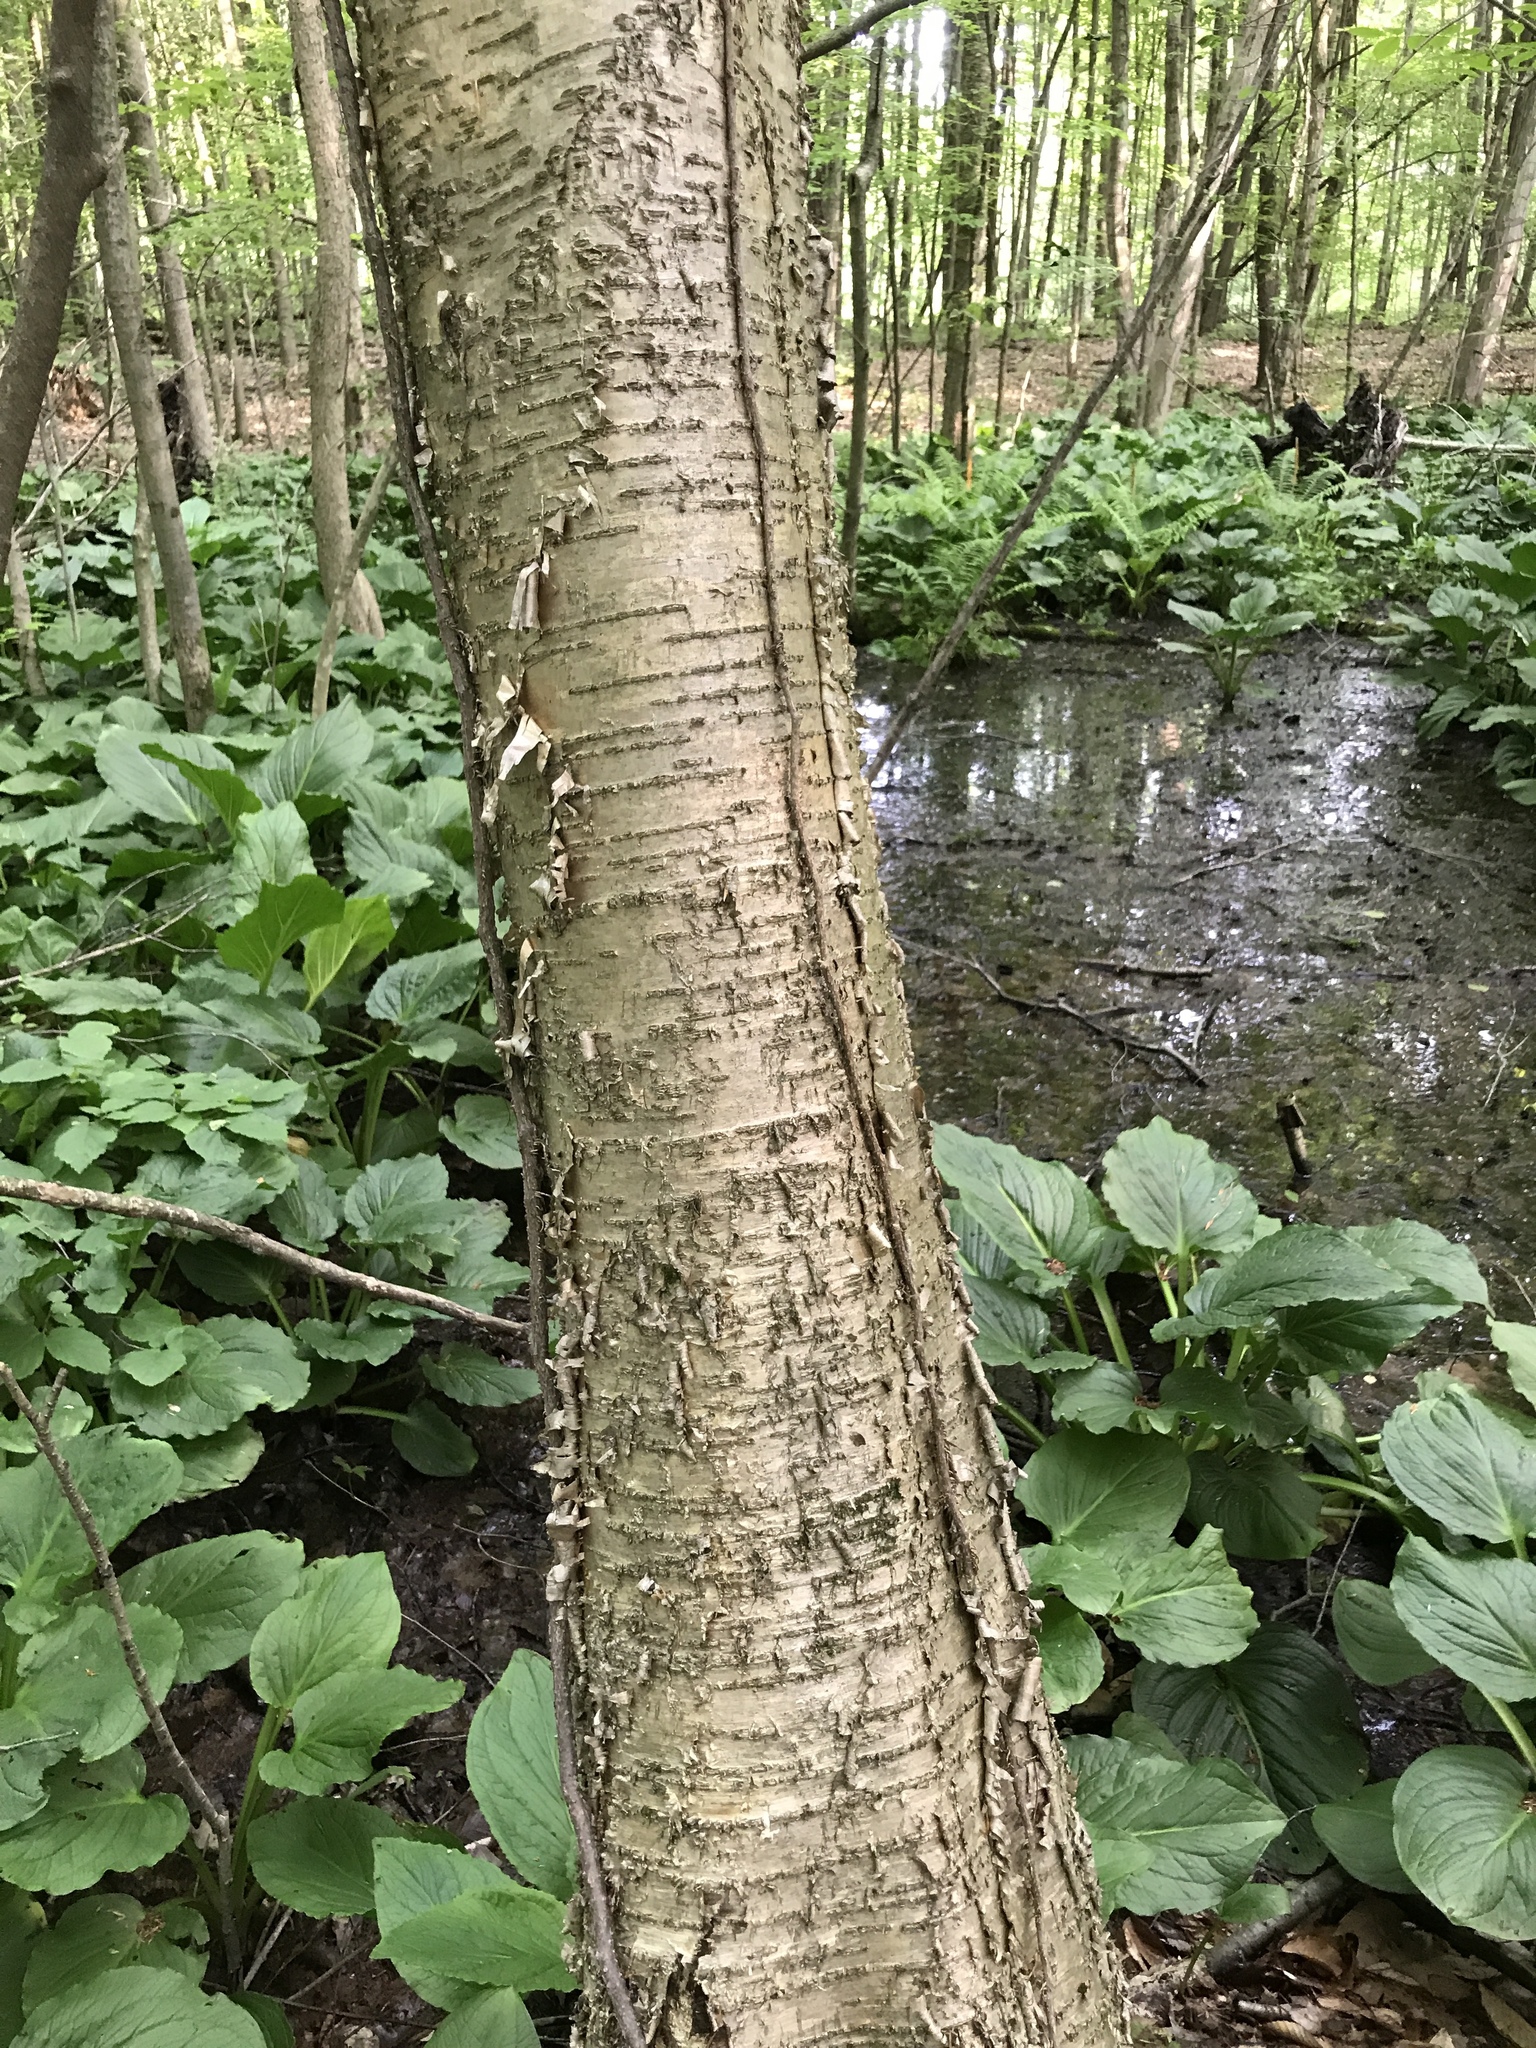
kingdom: Plantae
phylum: Tracheophyta
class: Magnoliopsida
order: Fagales
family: Betulaceae
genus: Betula
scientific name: Betula alleghaniensis
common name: Yellow birch
